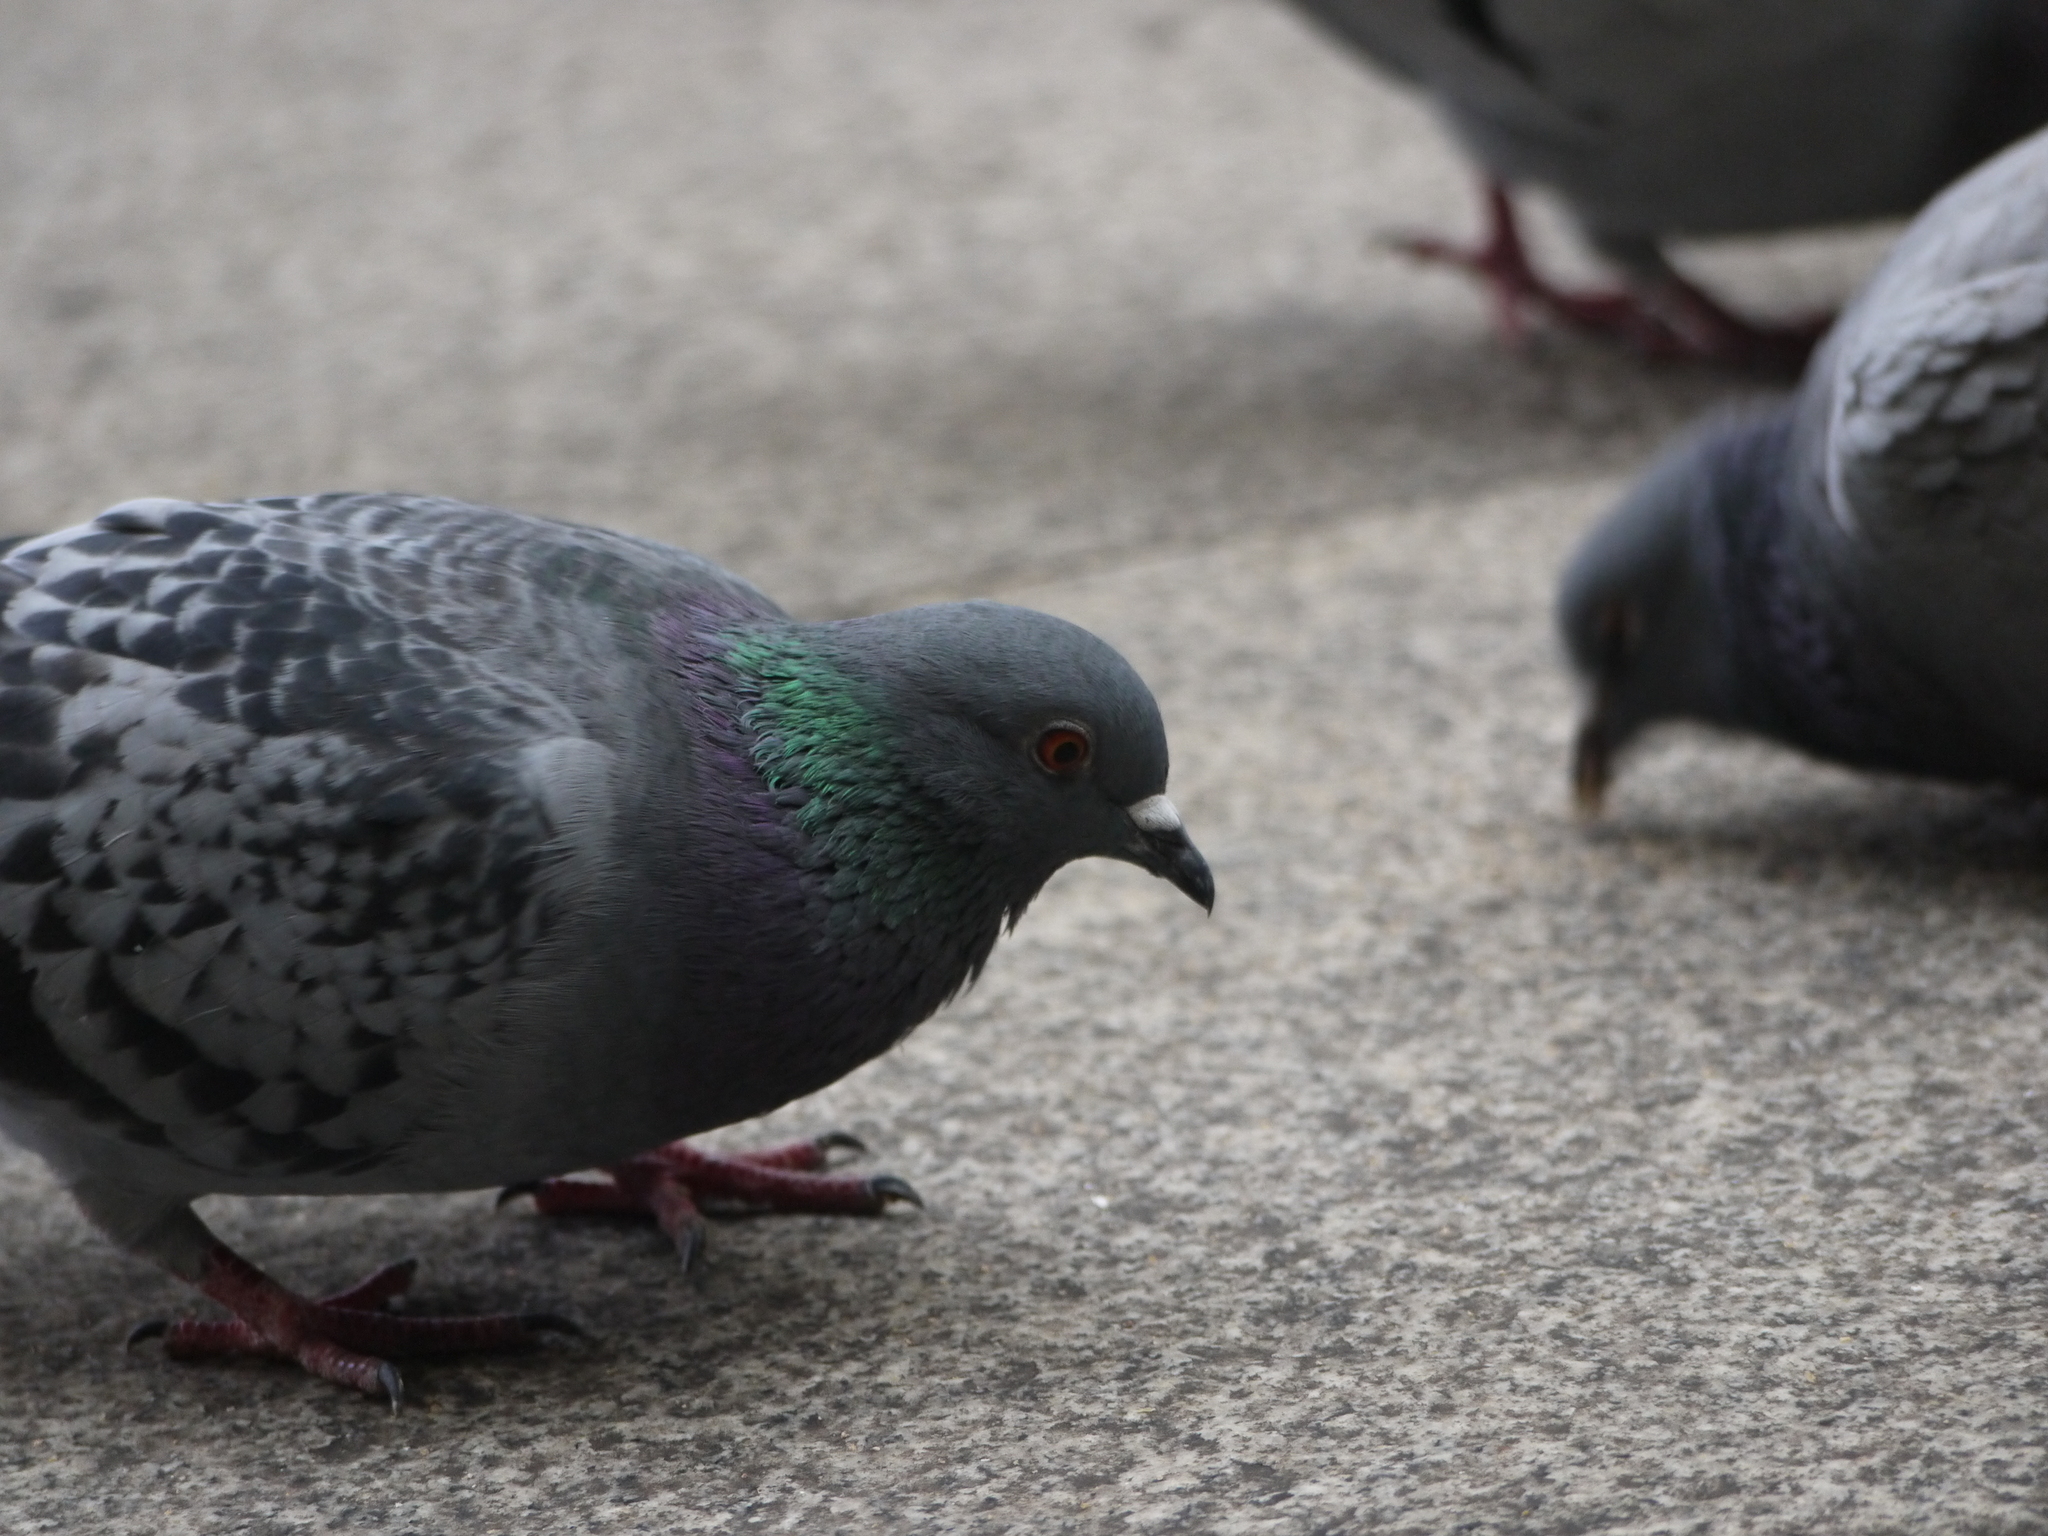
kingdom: Animalia
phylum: Chordata
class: Aves
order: Columbiformes
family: Columbidae
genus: Columba
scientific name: Columba livia
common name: Rock pigeon
